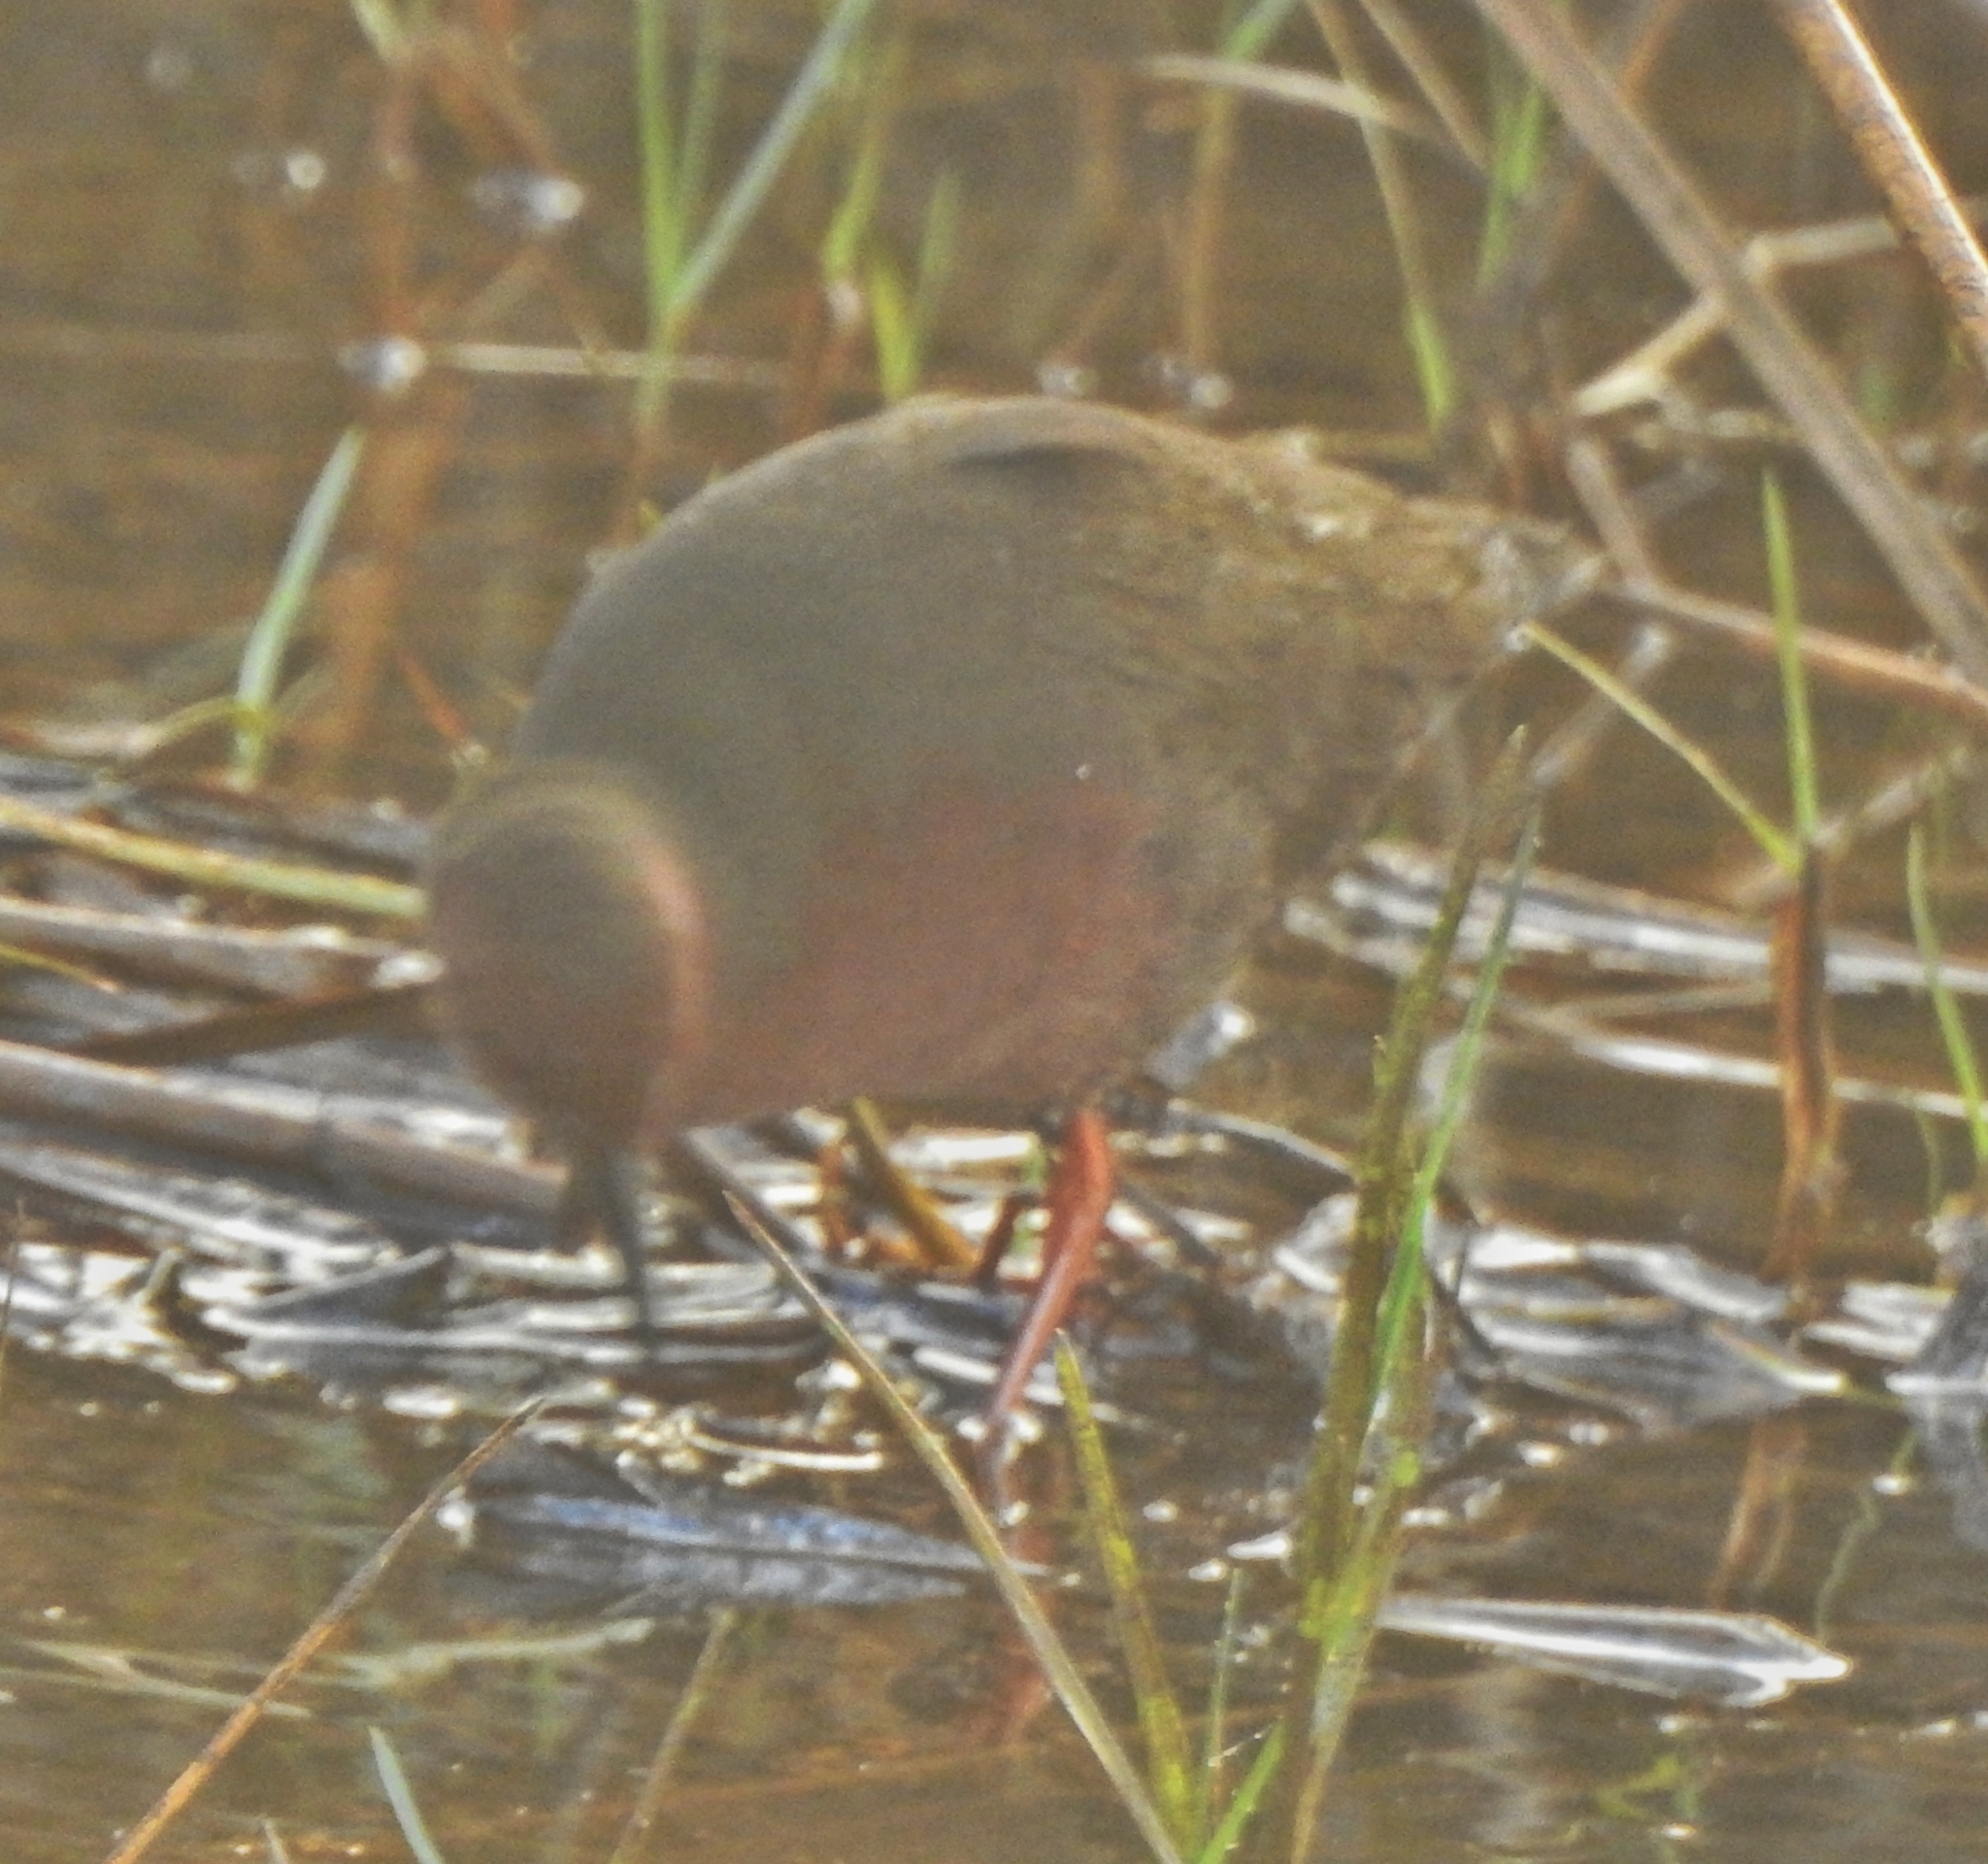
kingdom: Animalia
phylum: Chordata
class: Aves
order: Gruiformes
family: Rallidae
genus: Porzana
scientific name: Porzana fusca
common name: Ruddy-breasted crake
